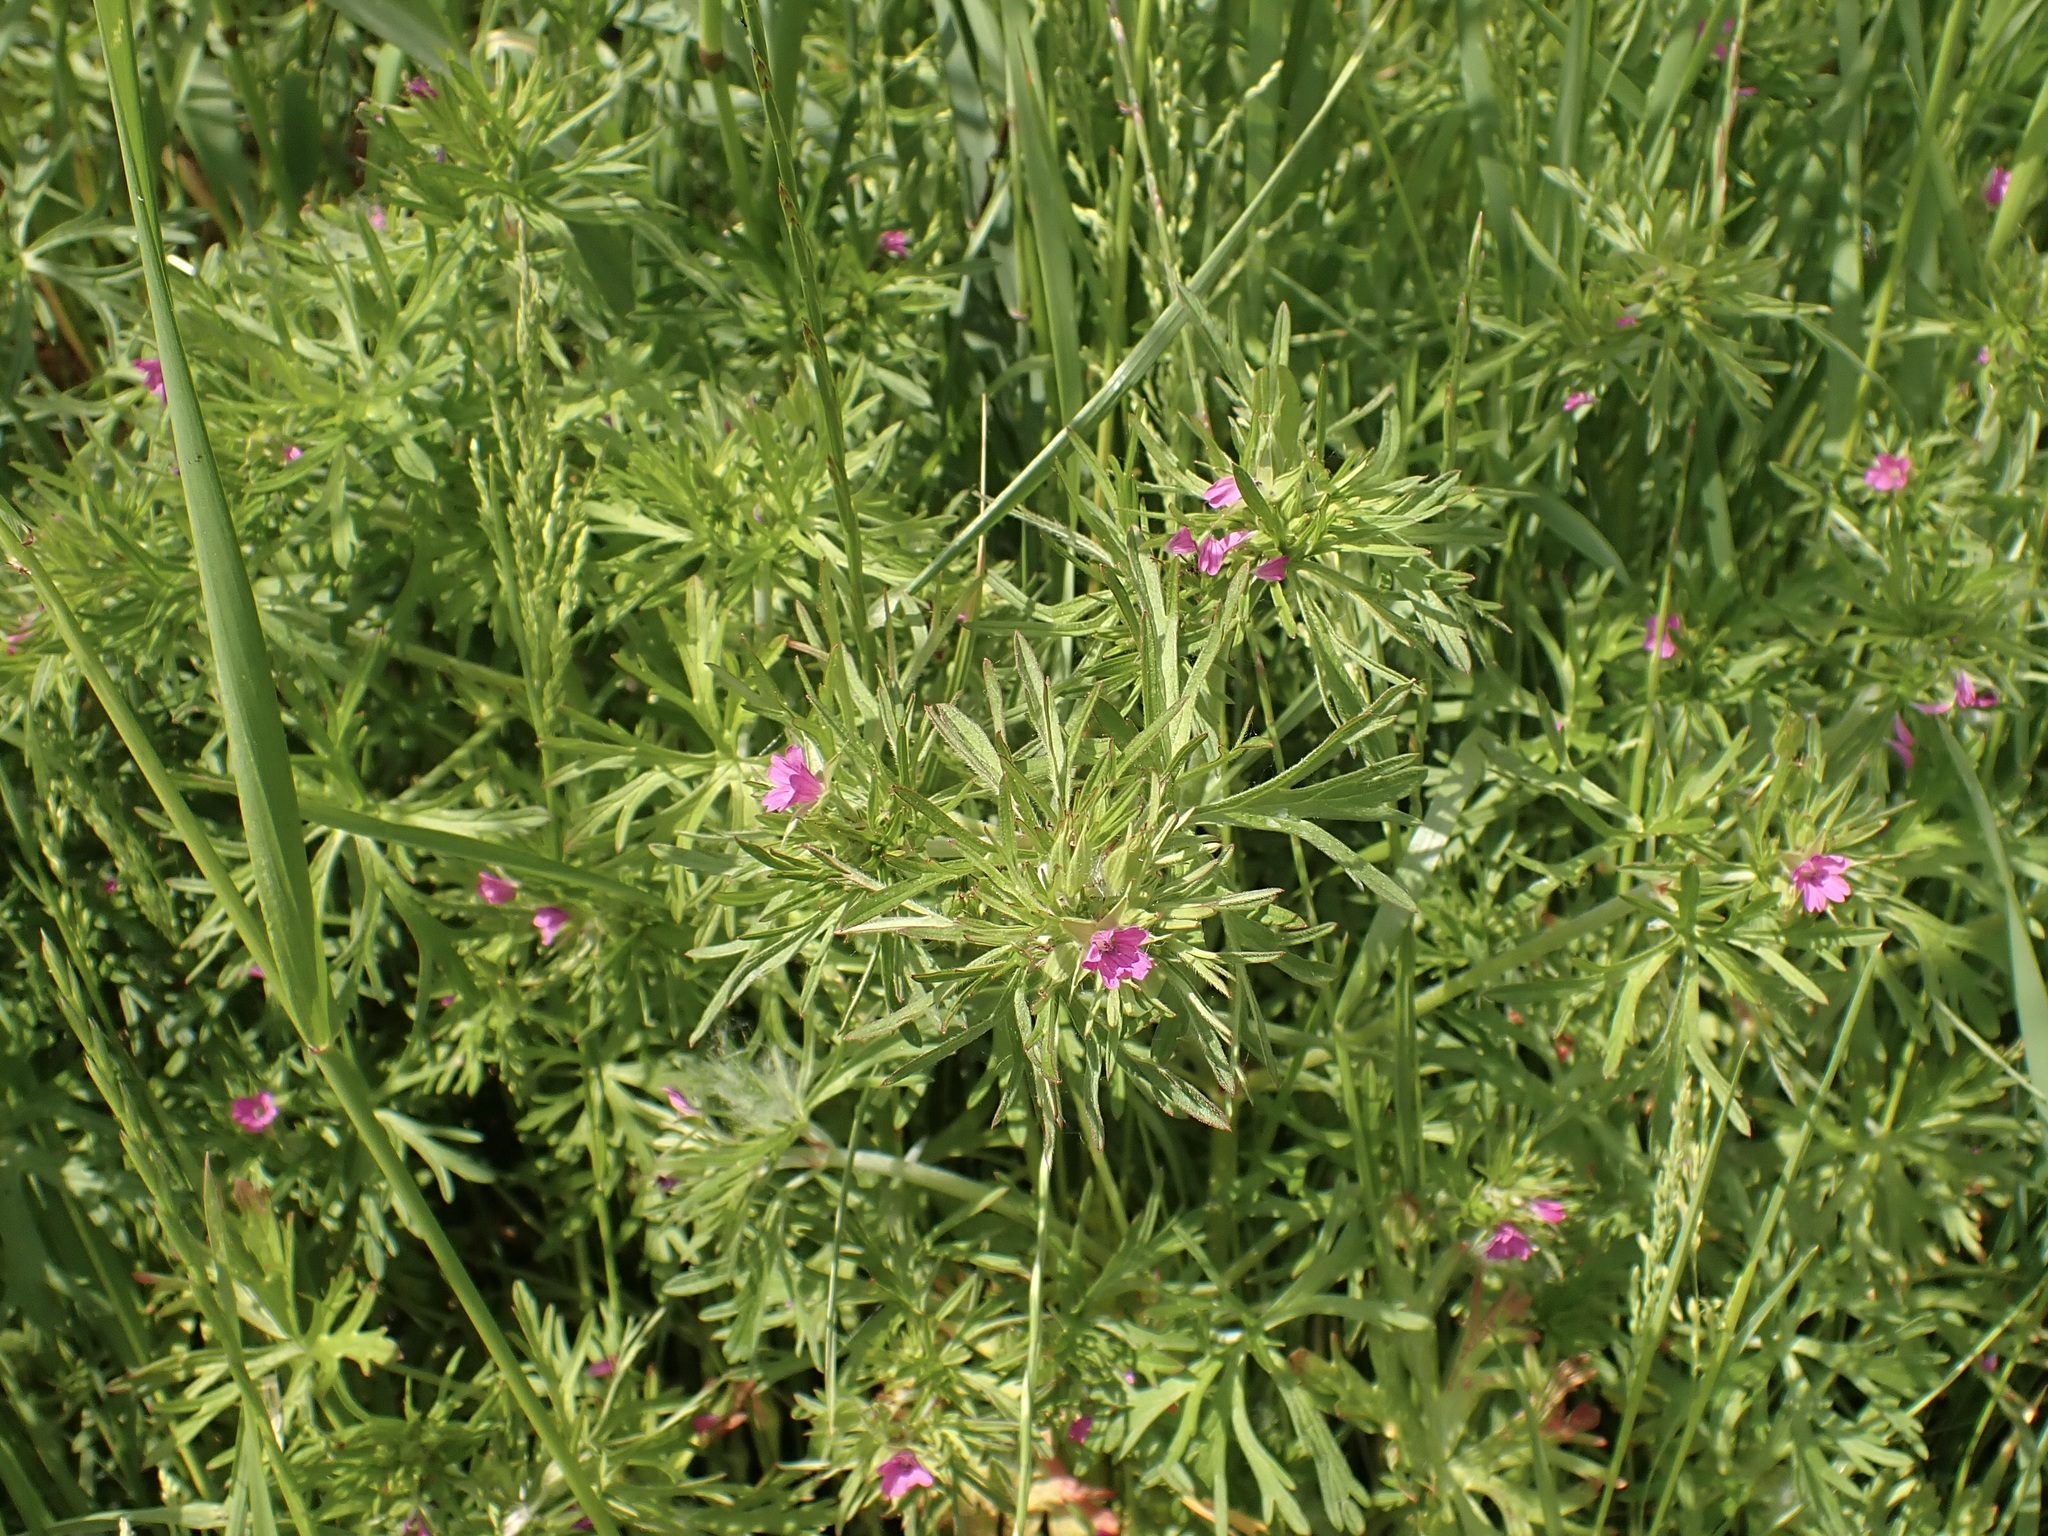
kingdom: Plantae
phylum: Tracheophyta
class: Magnoliopsida
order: Geraniales
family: Geraniaceae
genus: Geranium
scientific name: Geranium dissectum
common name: Cut-leaved crane's-bill
